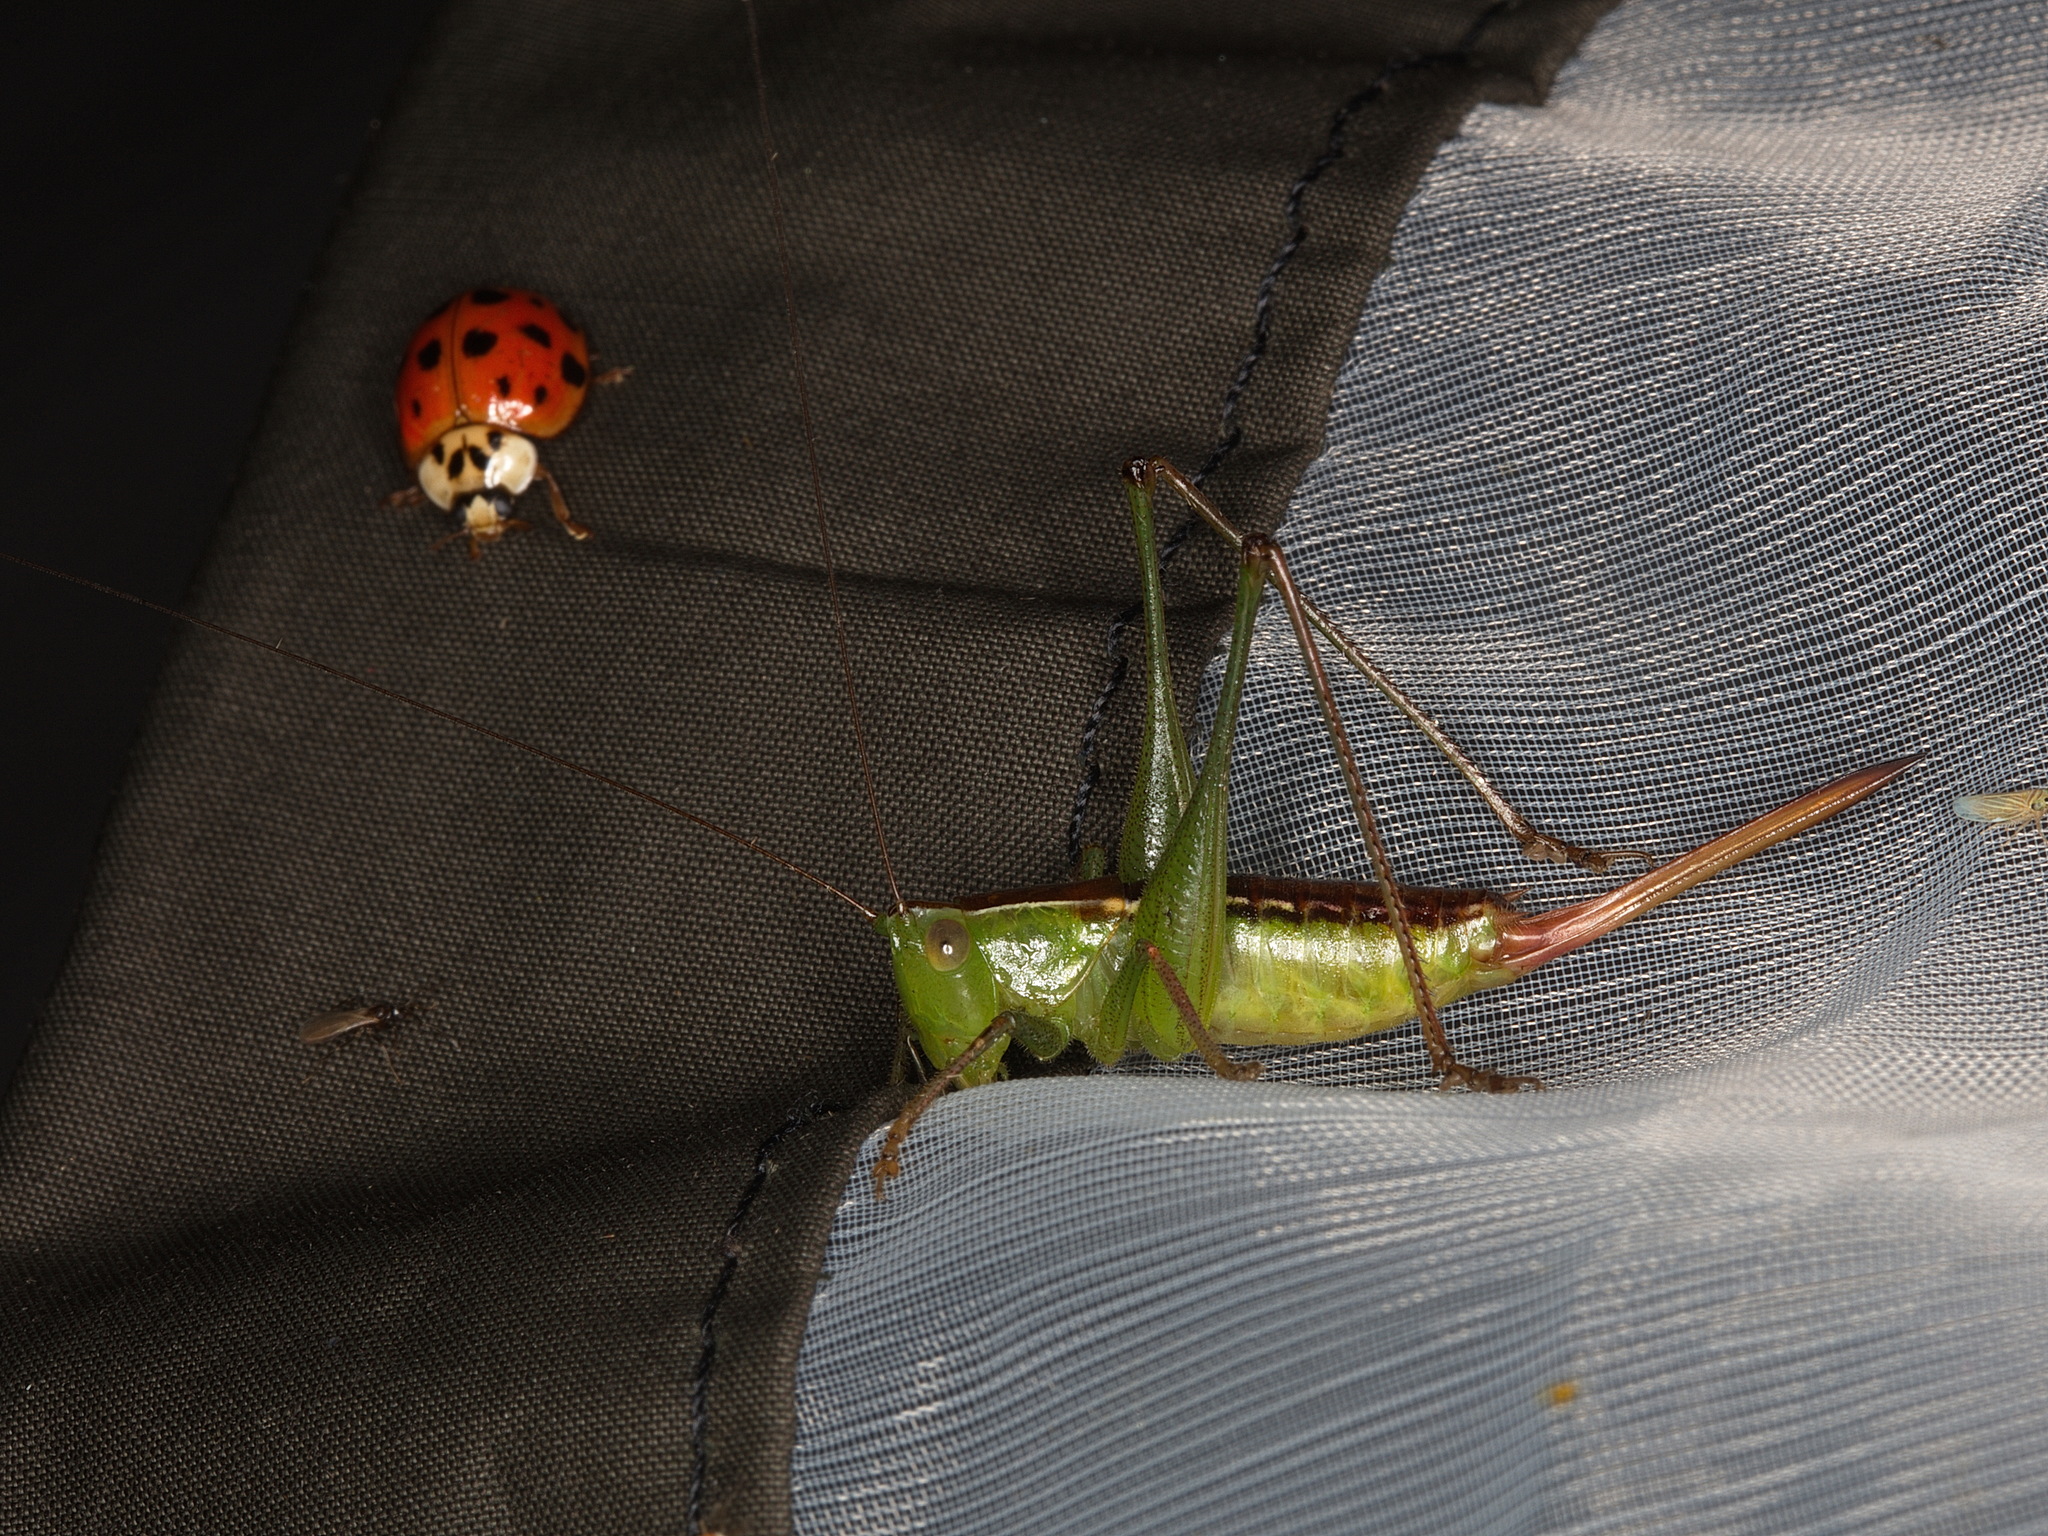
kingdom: Animalia
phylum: Arthropoda
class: Insecta
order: Orthoptera
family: Tettigoniidae
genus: Odontoxiphidium
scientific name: Odontoxiphidium apterum
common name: Wingless meadow katydid
